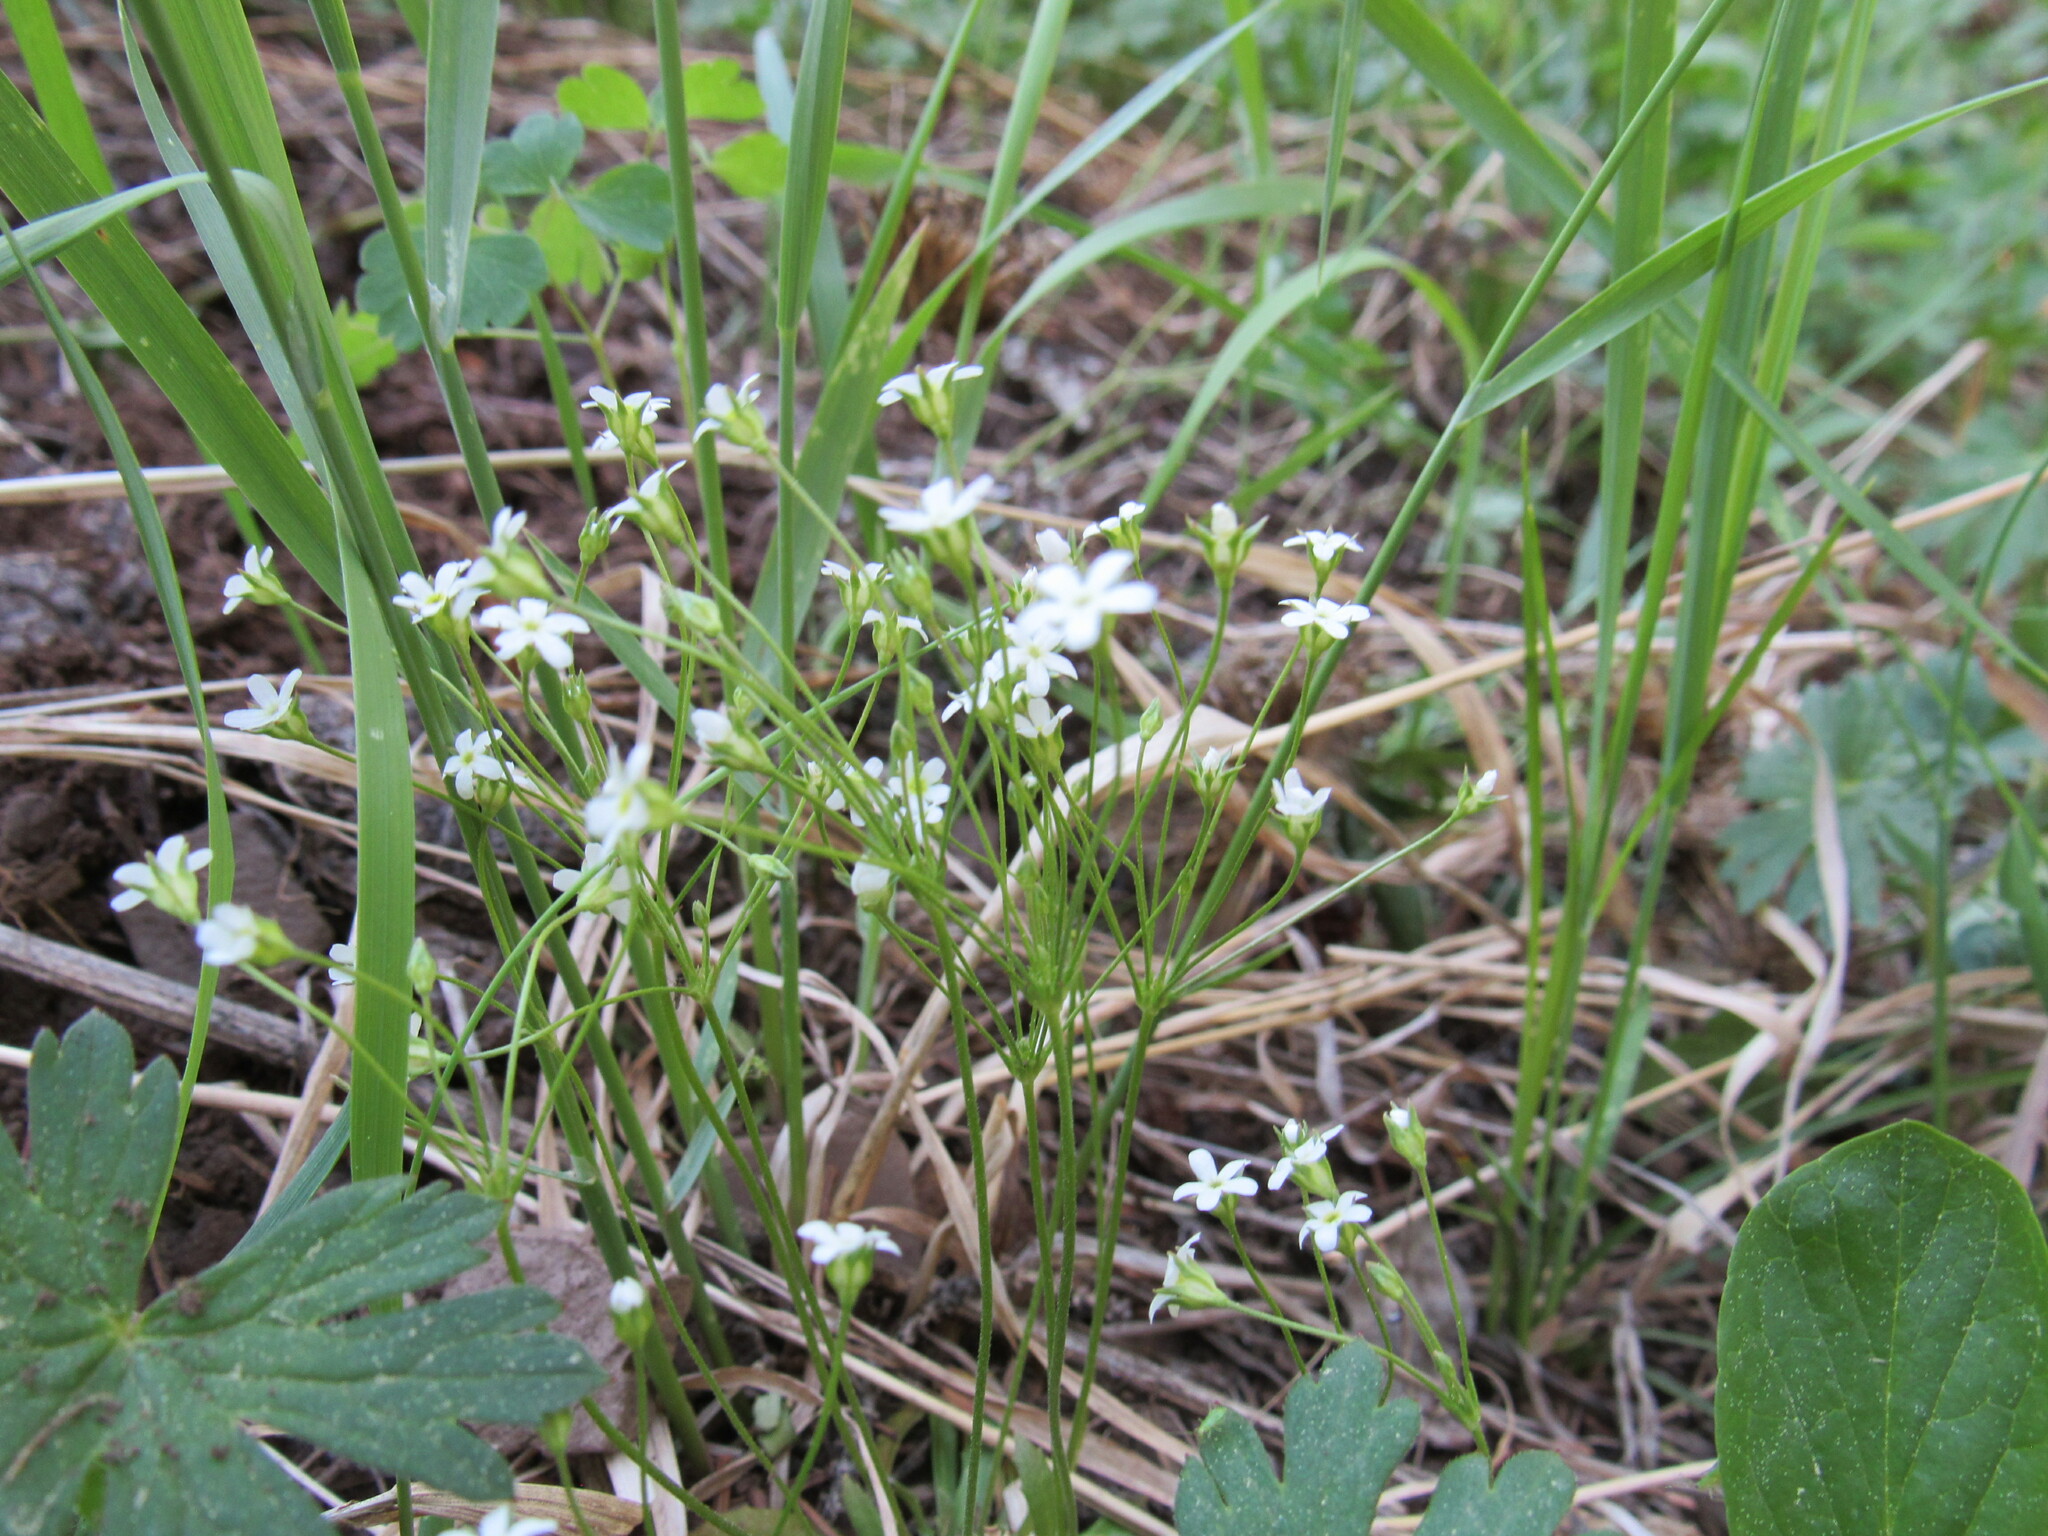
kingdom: Plantae
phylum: Tracheophyta
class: Magnoliopsida
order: Ericales
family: Primulaceae
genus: Androsace
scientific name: Androsace septentrionalis
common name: Hairy northern fairy-candelabra
